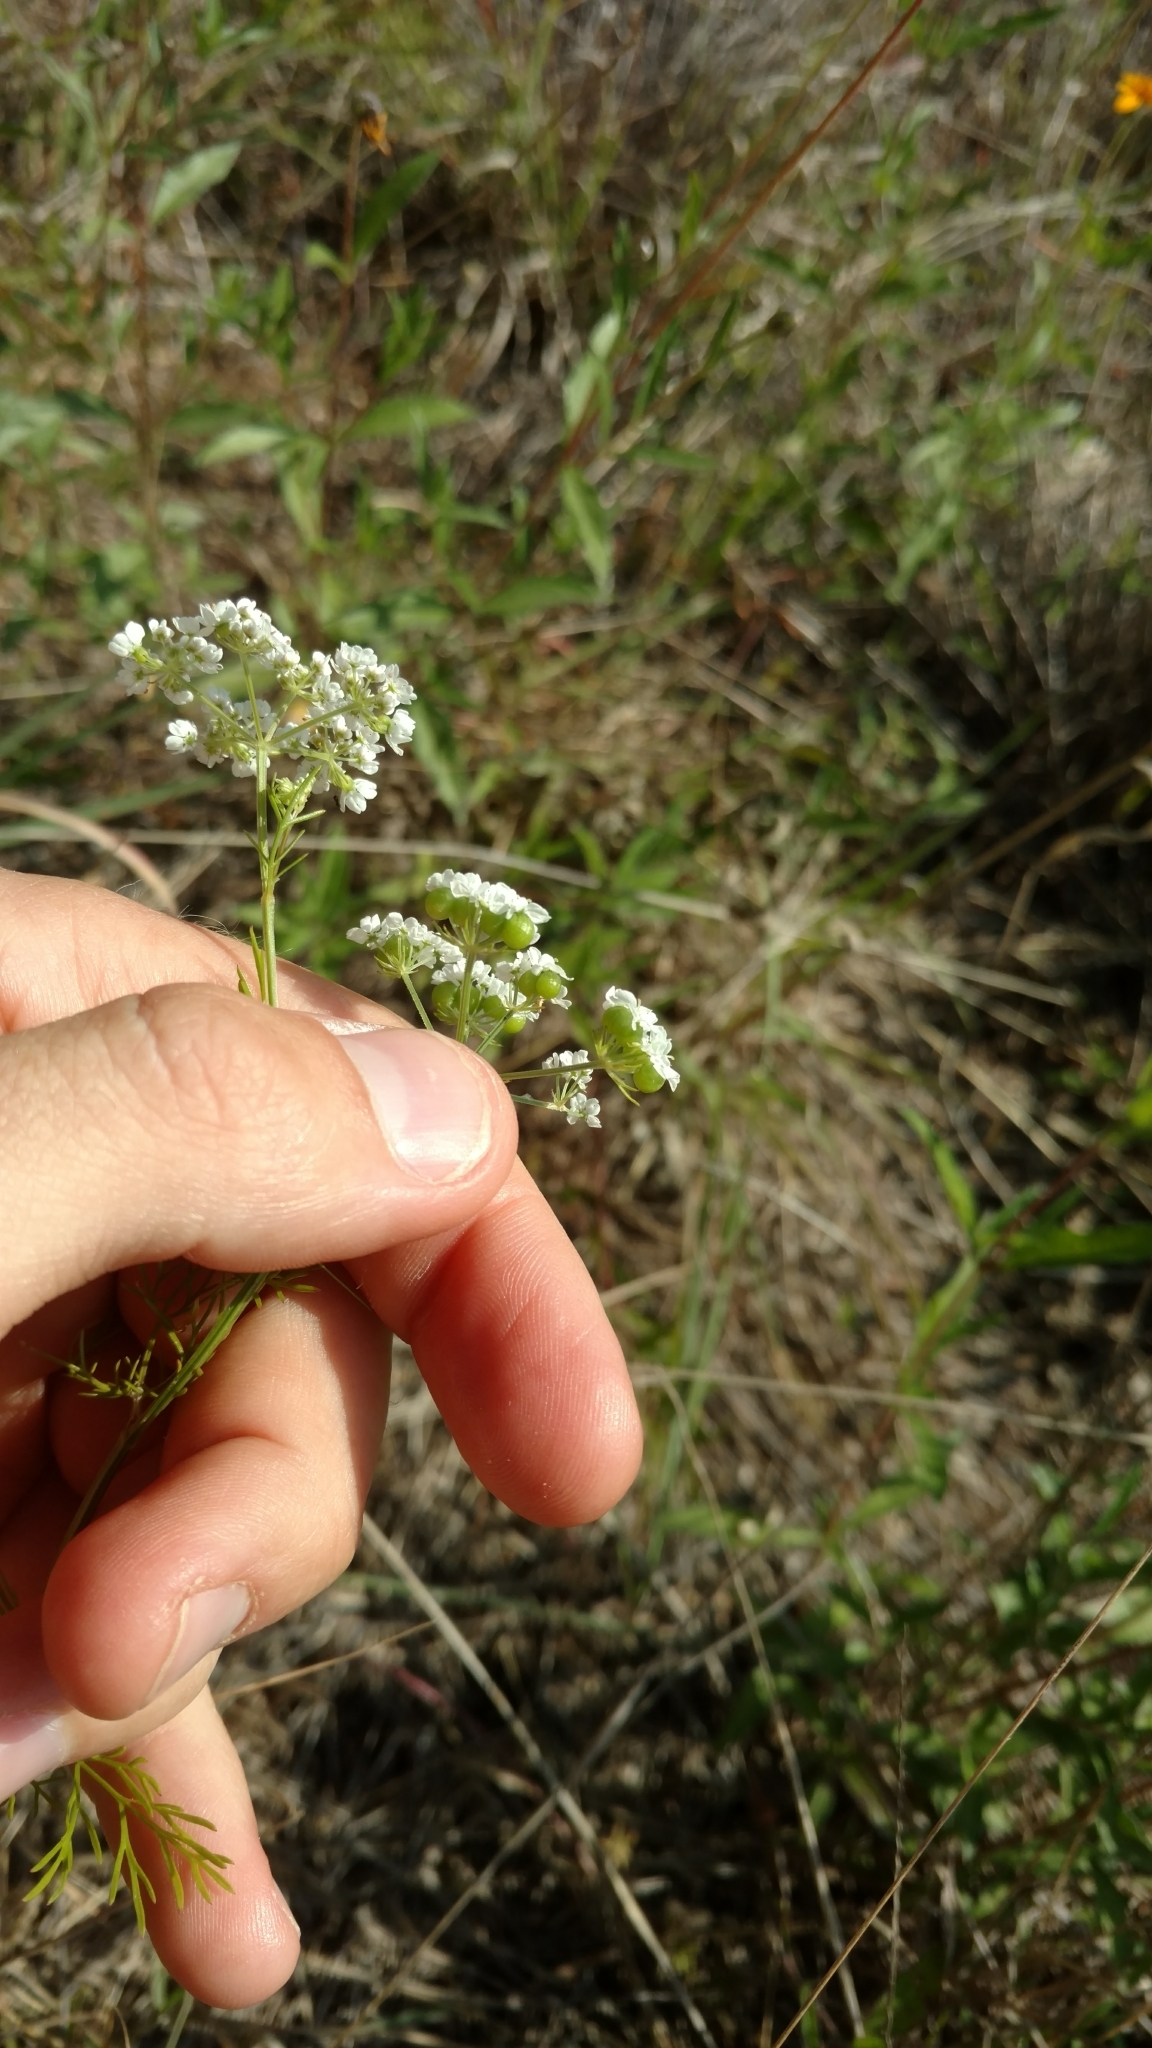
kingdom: Plantae
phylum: Tracheophyta
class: Magnoliopsida
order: Apiales
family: Apiaceae
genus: Atrema
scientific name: Atrema americanum
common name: Prairie-bishop
